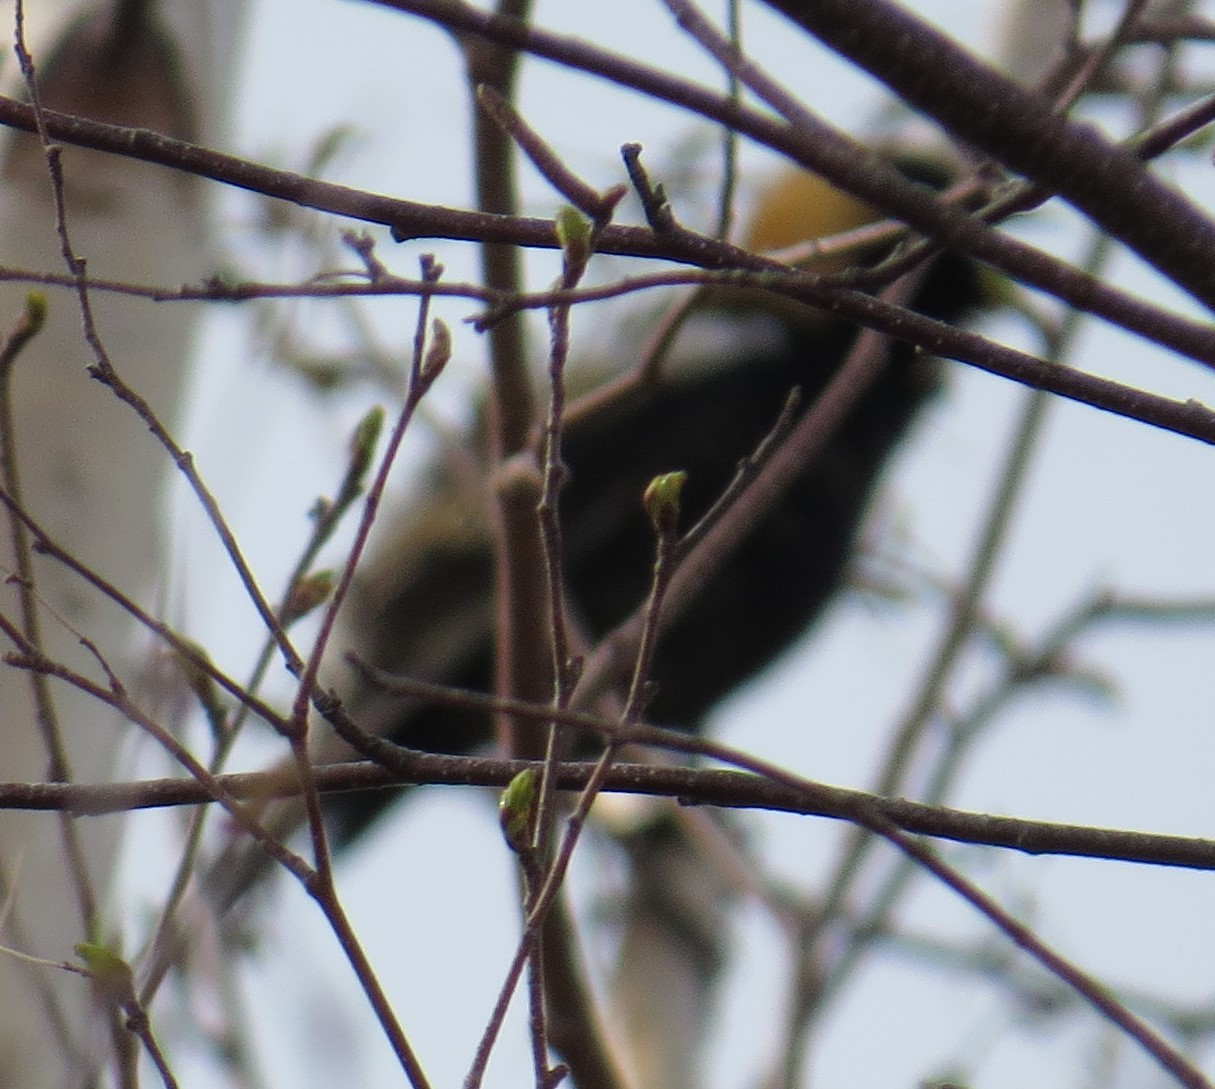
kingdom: Animalia
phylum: Chordata
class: Aves
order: Passeriformes
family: Icteridae
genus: Dolichonyx
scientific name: Dolichonyx oryzivorus
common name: Bobolink
